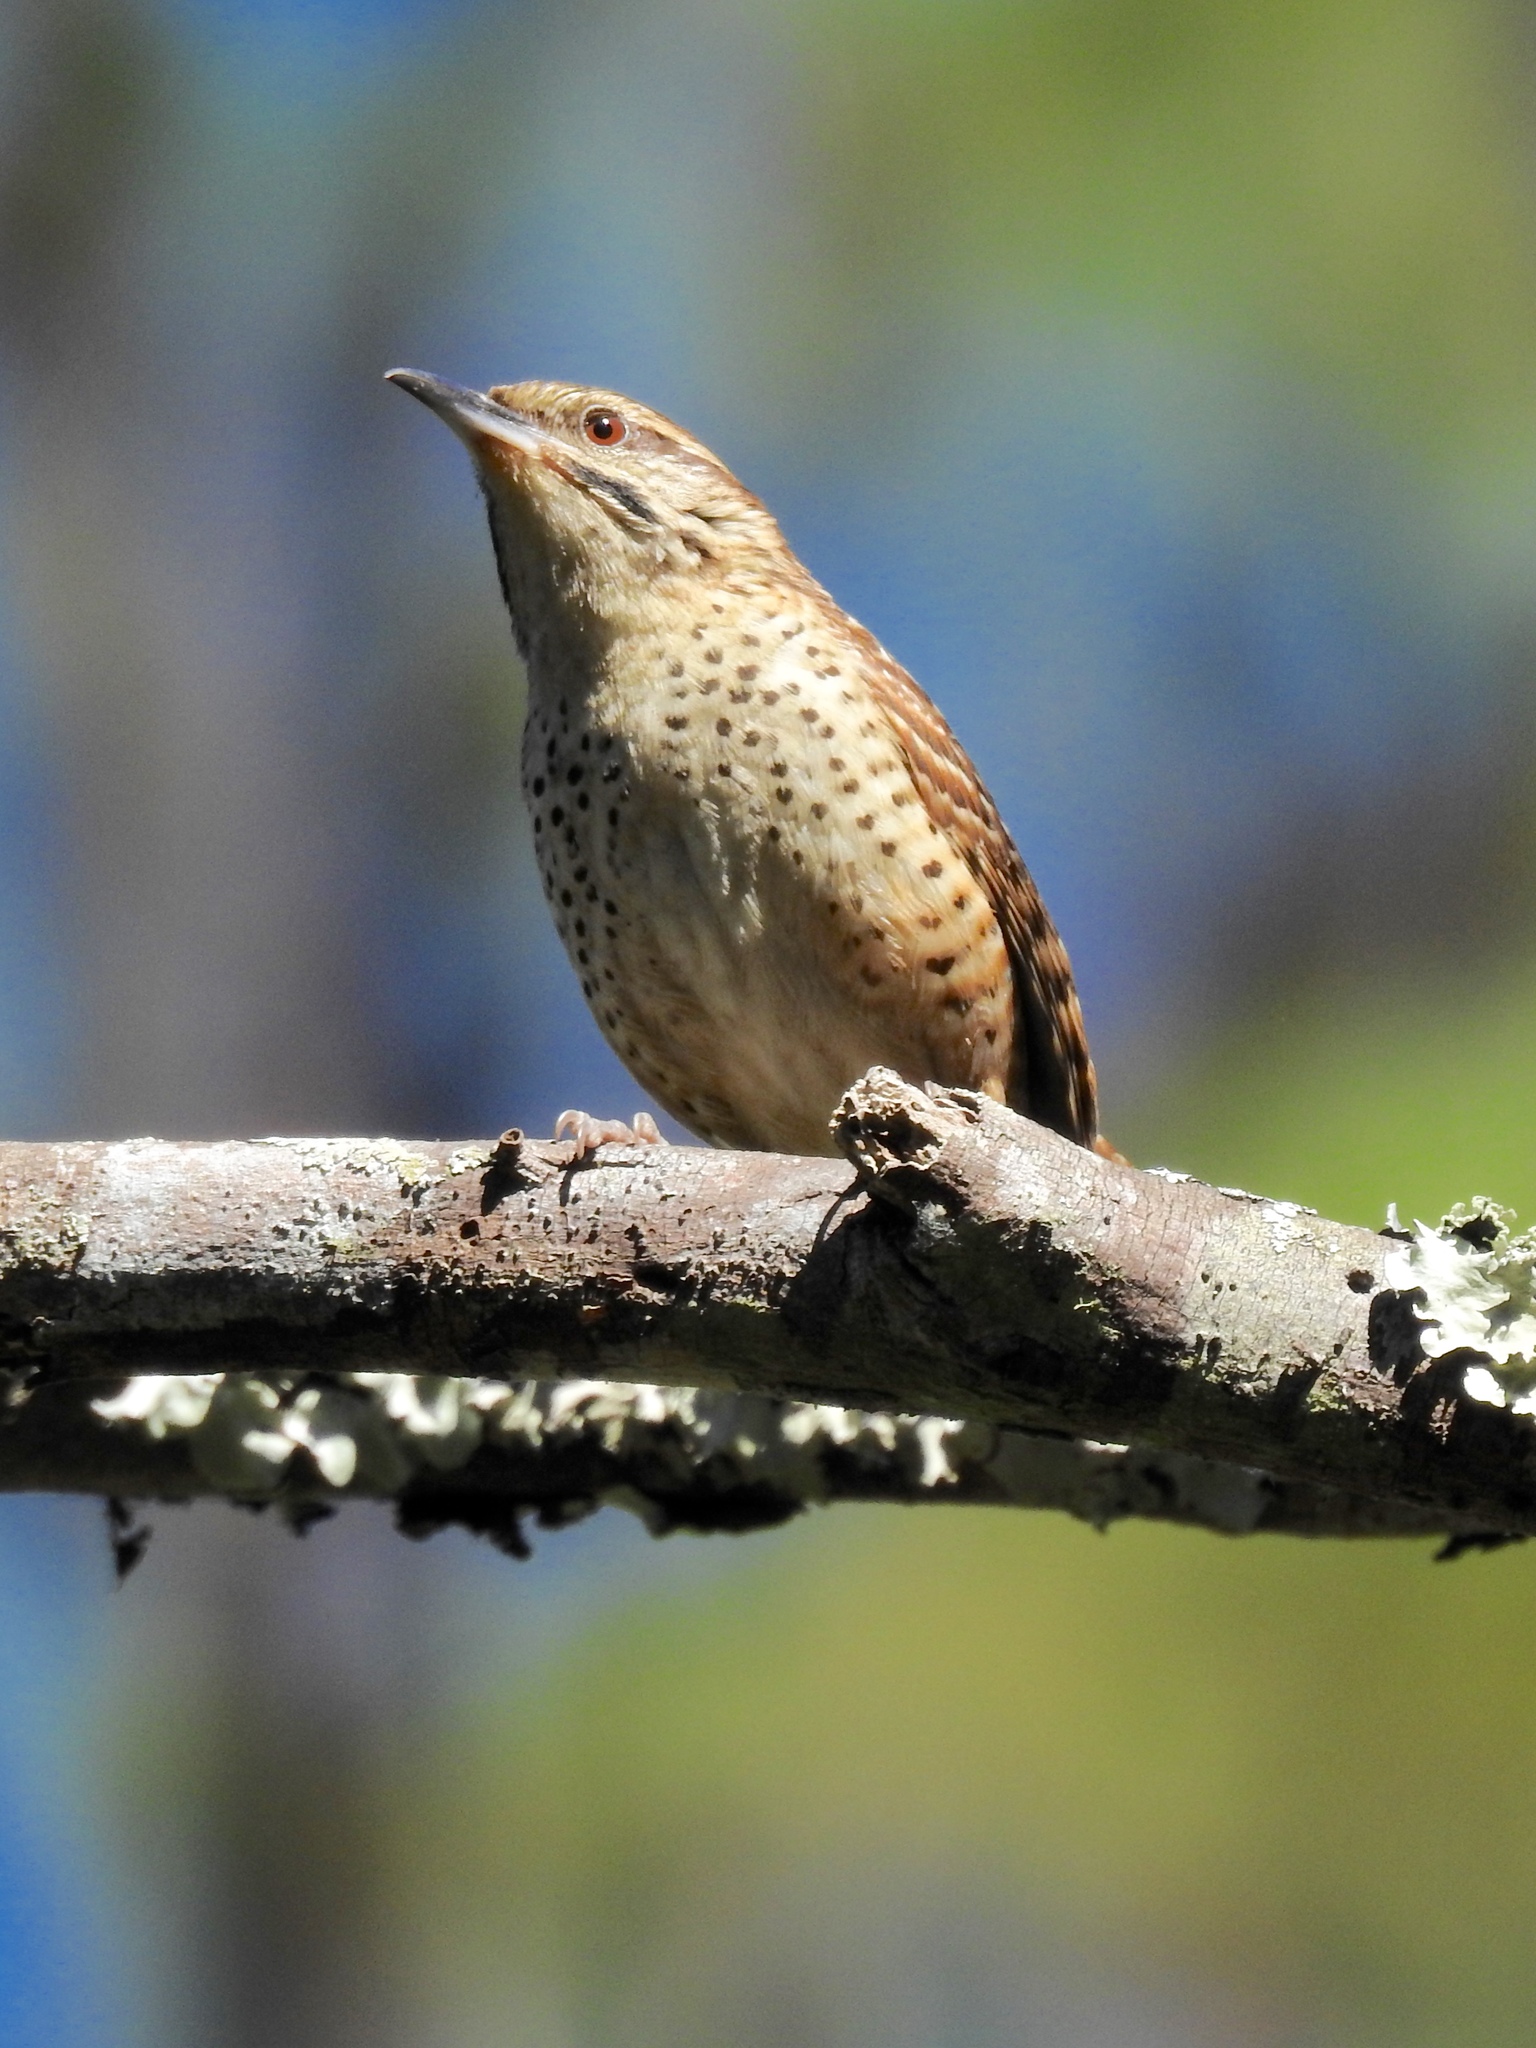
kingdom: Animalia
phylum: Chordata
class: Aves
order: Passeriformes
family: Troglodytidae
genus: Campylorhynchus
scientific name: Campylorhynchus gularis
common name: Spotted wren
